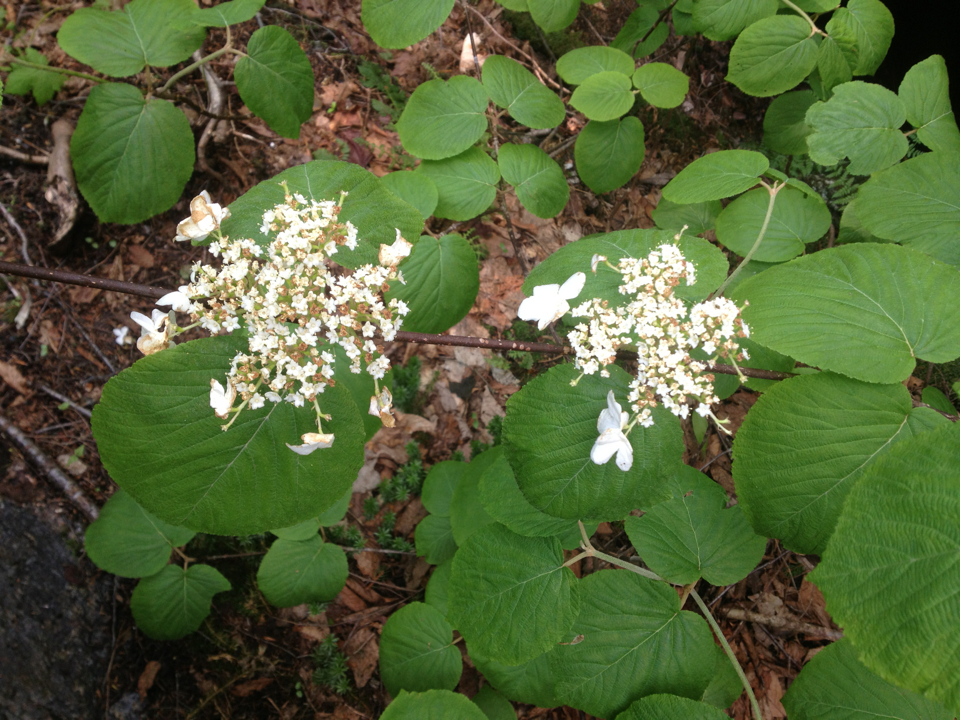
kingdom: Plantae
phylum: Tracheophyta
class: Magnoliopsida
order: Dipsacales
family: Viburnaceae
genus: Viburnum
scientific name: Viburnum lantanoides
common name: Hobblebush
